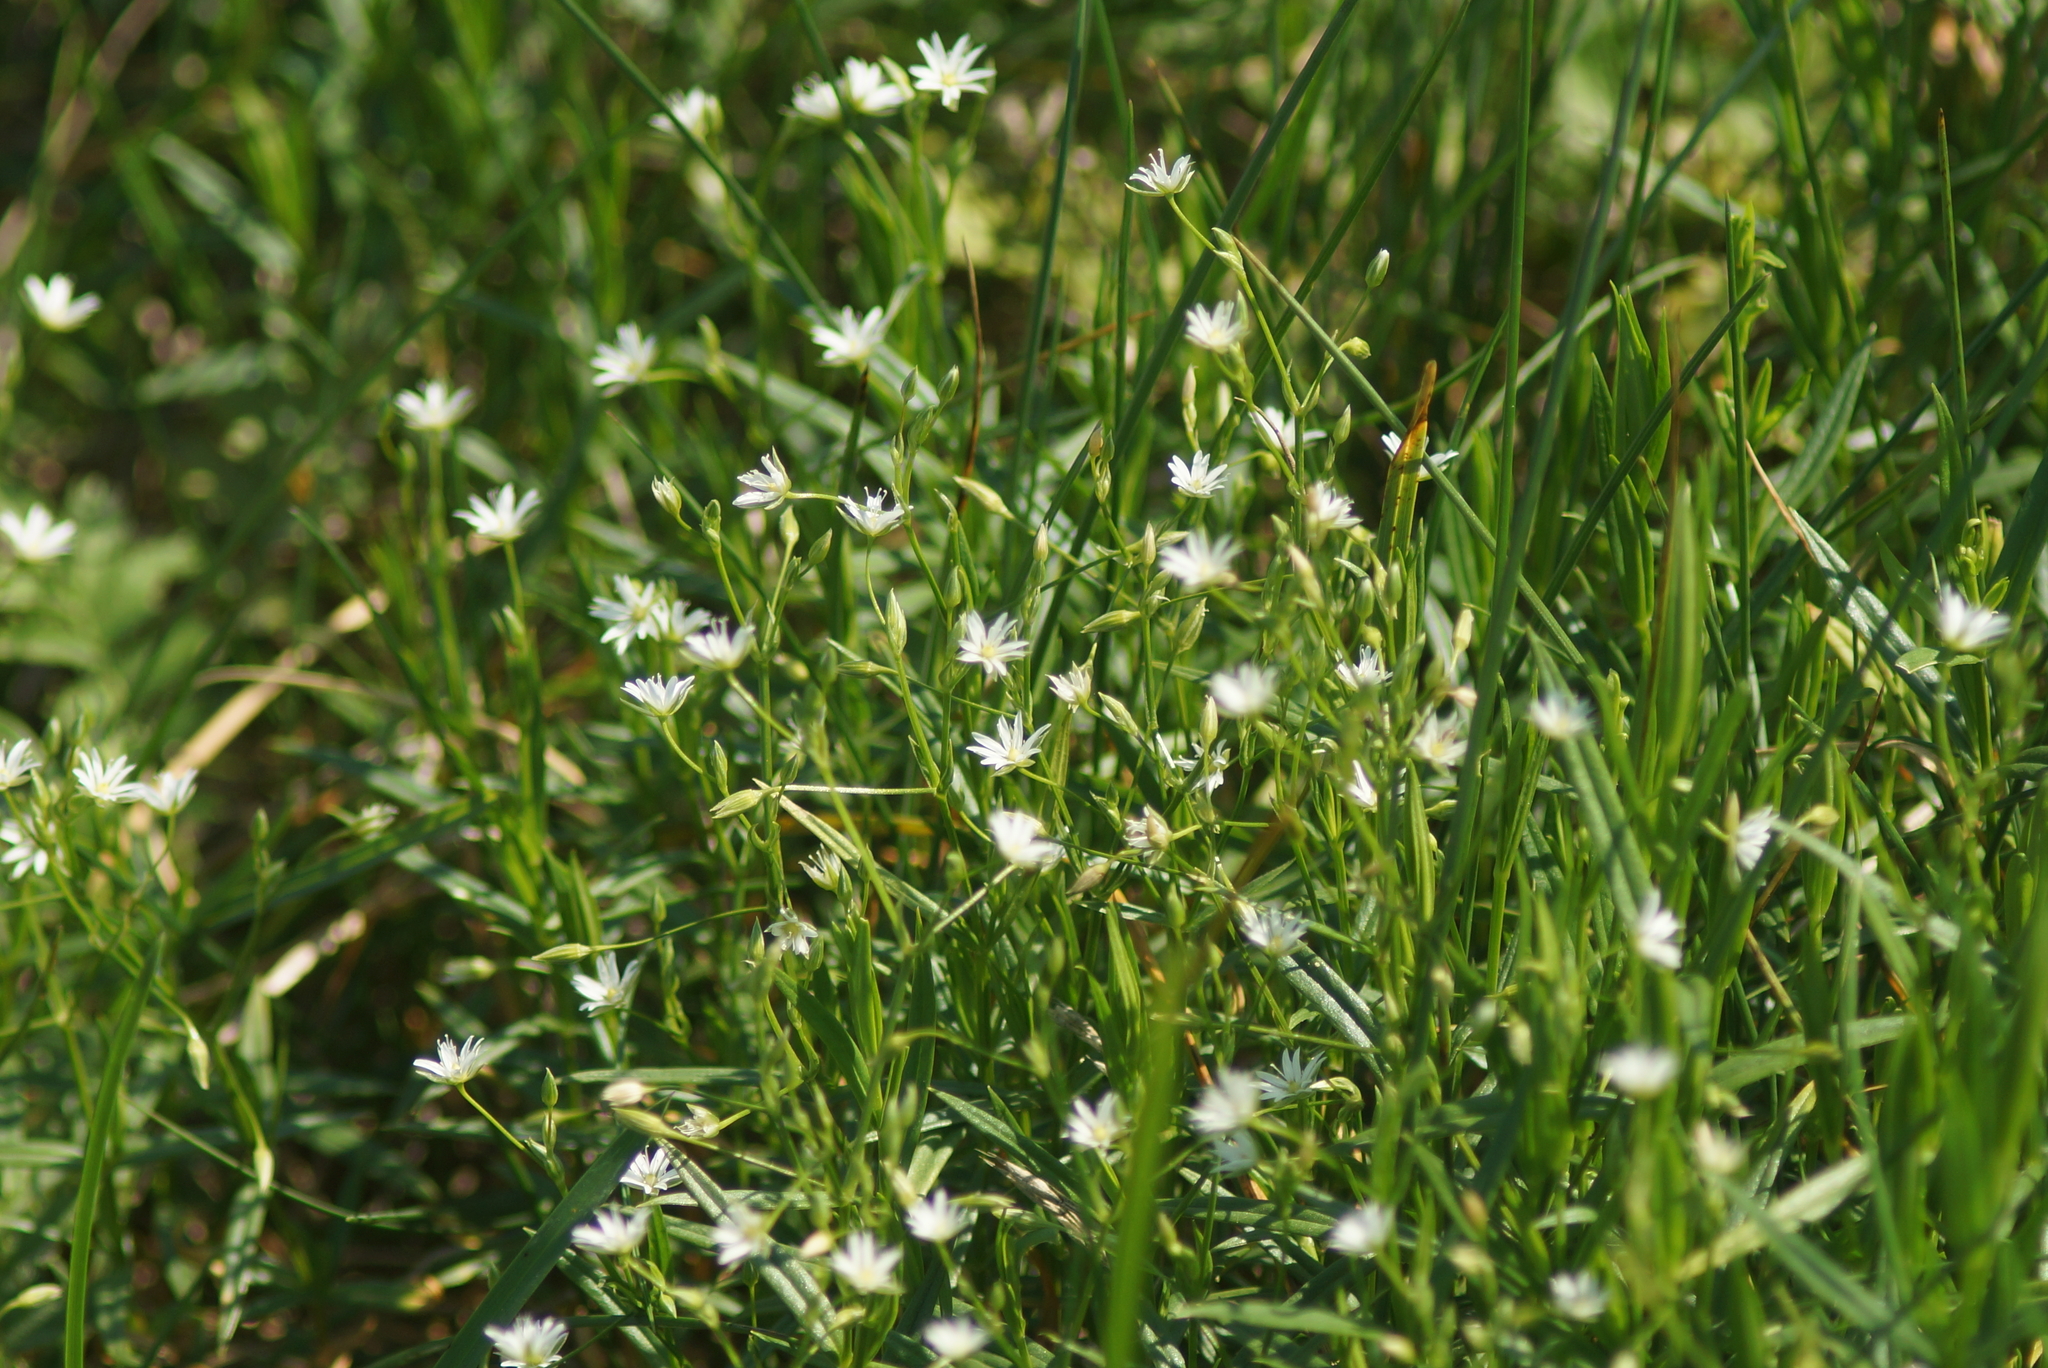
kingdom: Plantae
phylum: Tracheophyta
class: Magnoliopsida
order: Caryophyllales
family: Caryophyllaceae
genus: Stellaria
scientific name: Stellaria graminea
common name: Grass-like starwort
